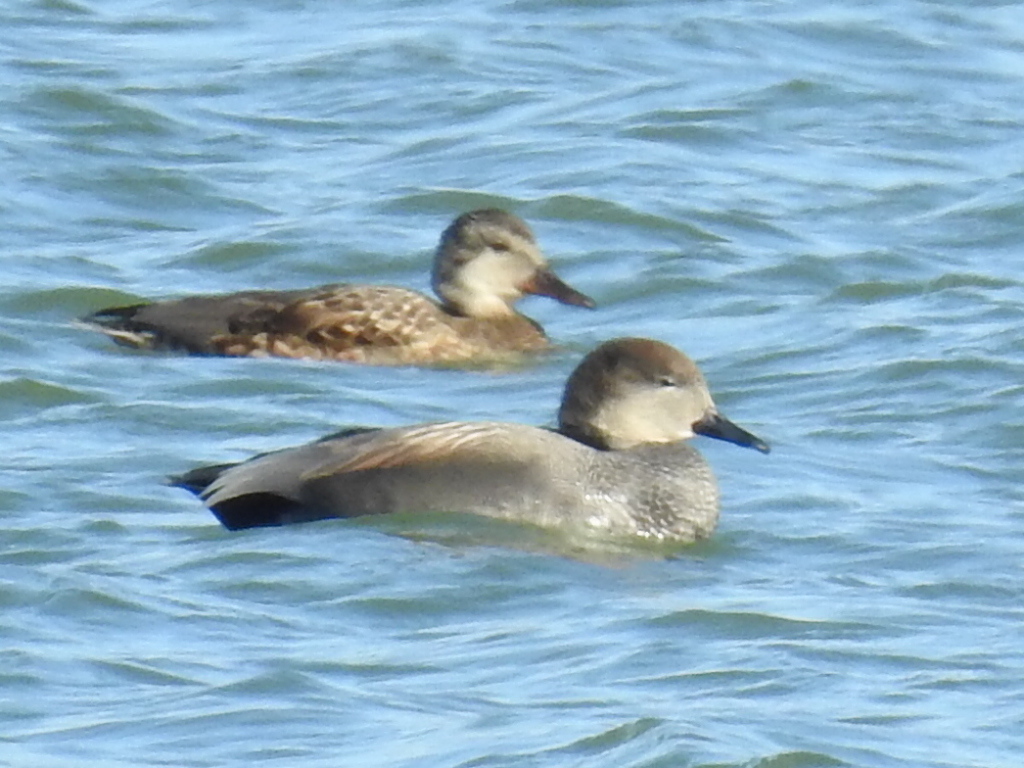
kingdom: Animalia
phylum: Chordata
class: Aves
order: Anseriformes
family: Anatidae
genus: Mareca
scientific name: Mareca strepera
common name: Gadwall
